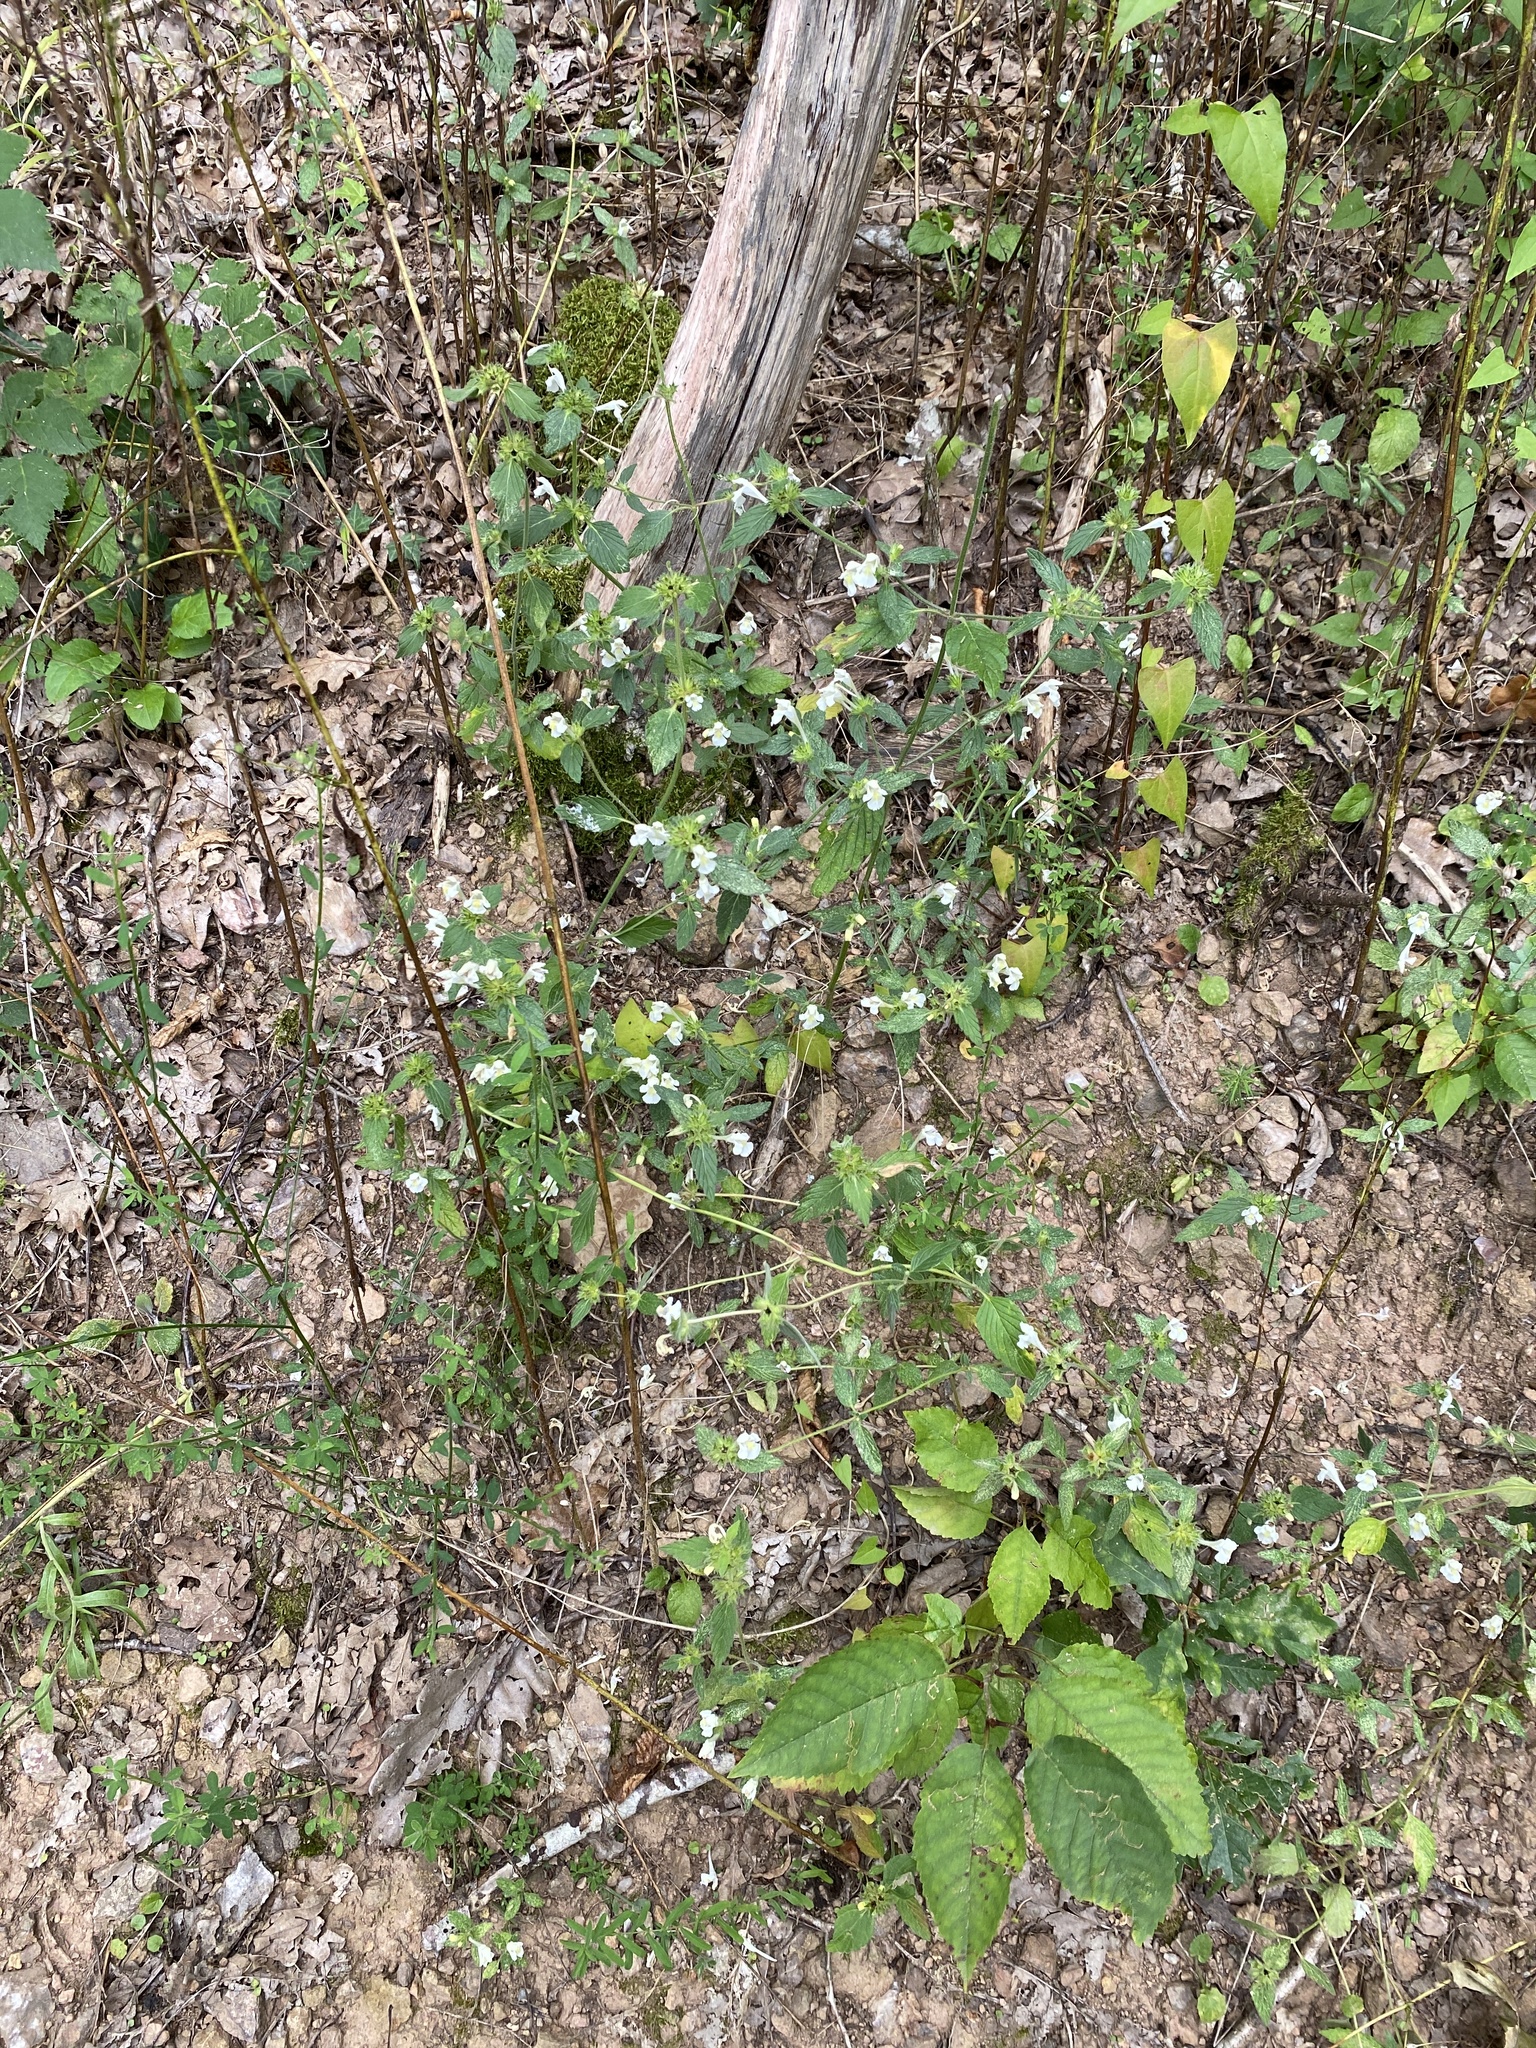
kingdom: Plantae
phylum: Tracheophyta
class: Magnoliopsida
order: Lamiales
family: Lamiaceae
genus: Galeopsis
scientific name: Galeopsis segetum
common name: Downy hemp-nettle
